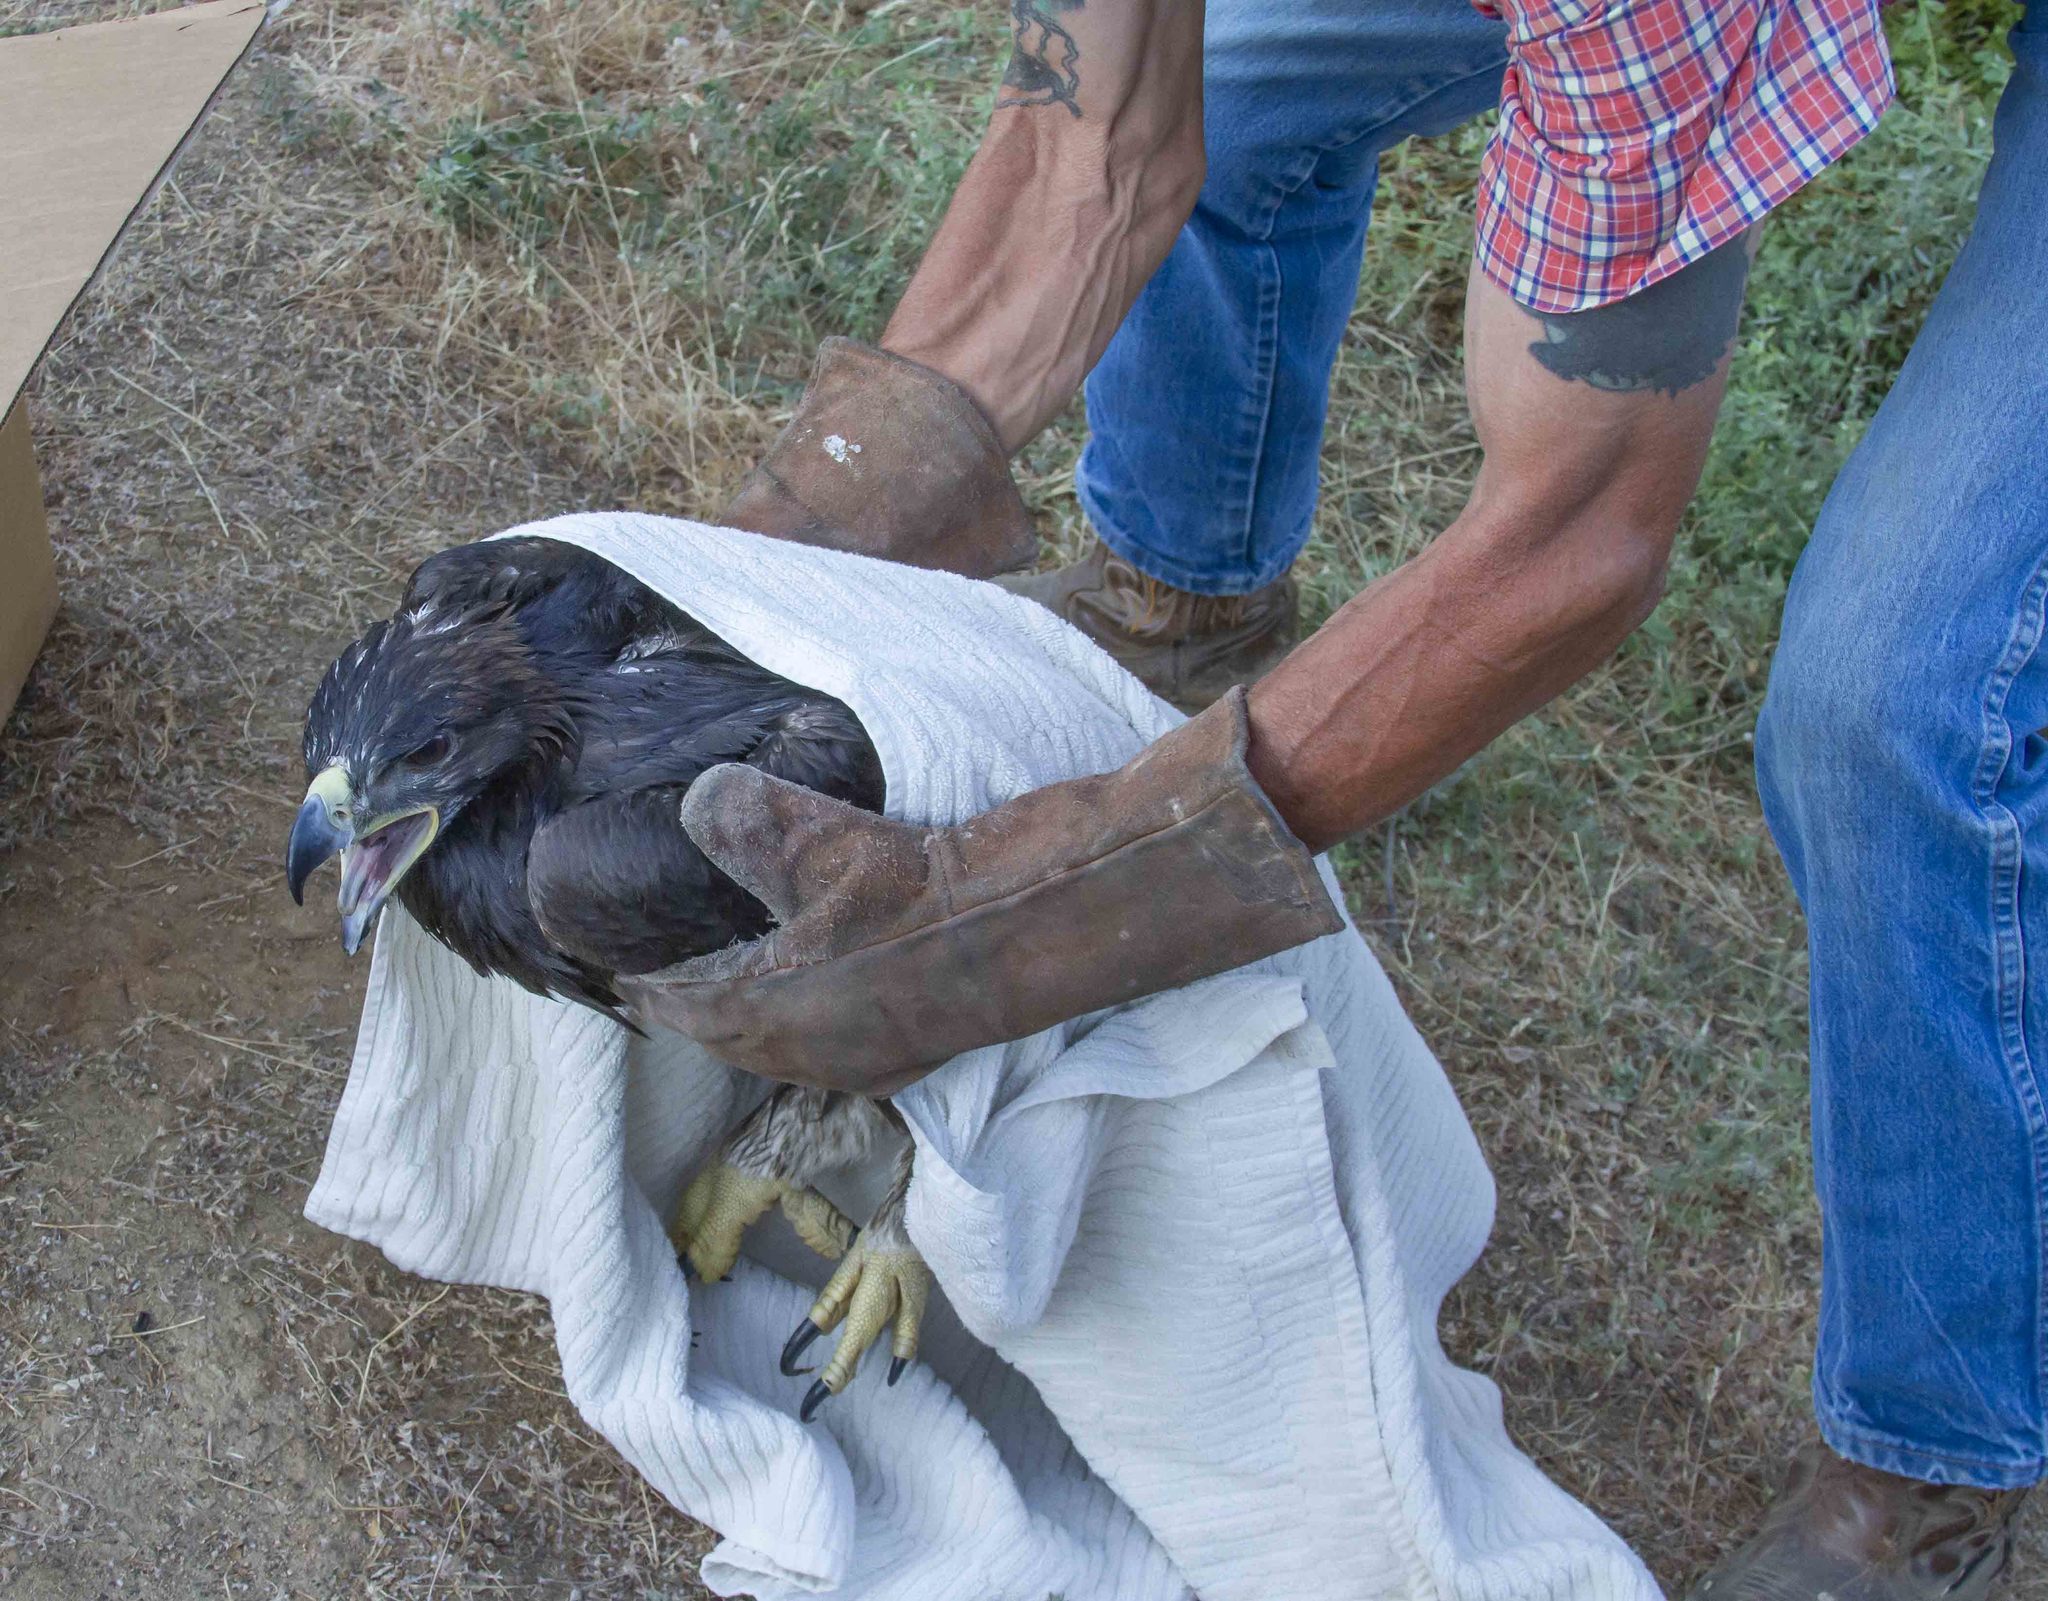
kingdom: Animalia
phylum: Chordata
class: Aves
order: Accipitriformes
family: Accipitridae
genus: Aquila
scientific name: Aquila chrysaetos
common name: Golden eagle
